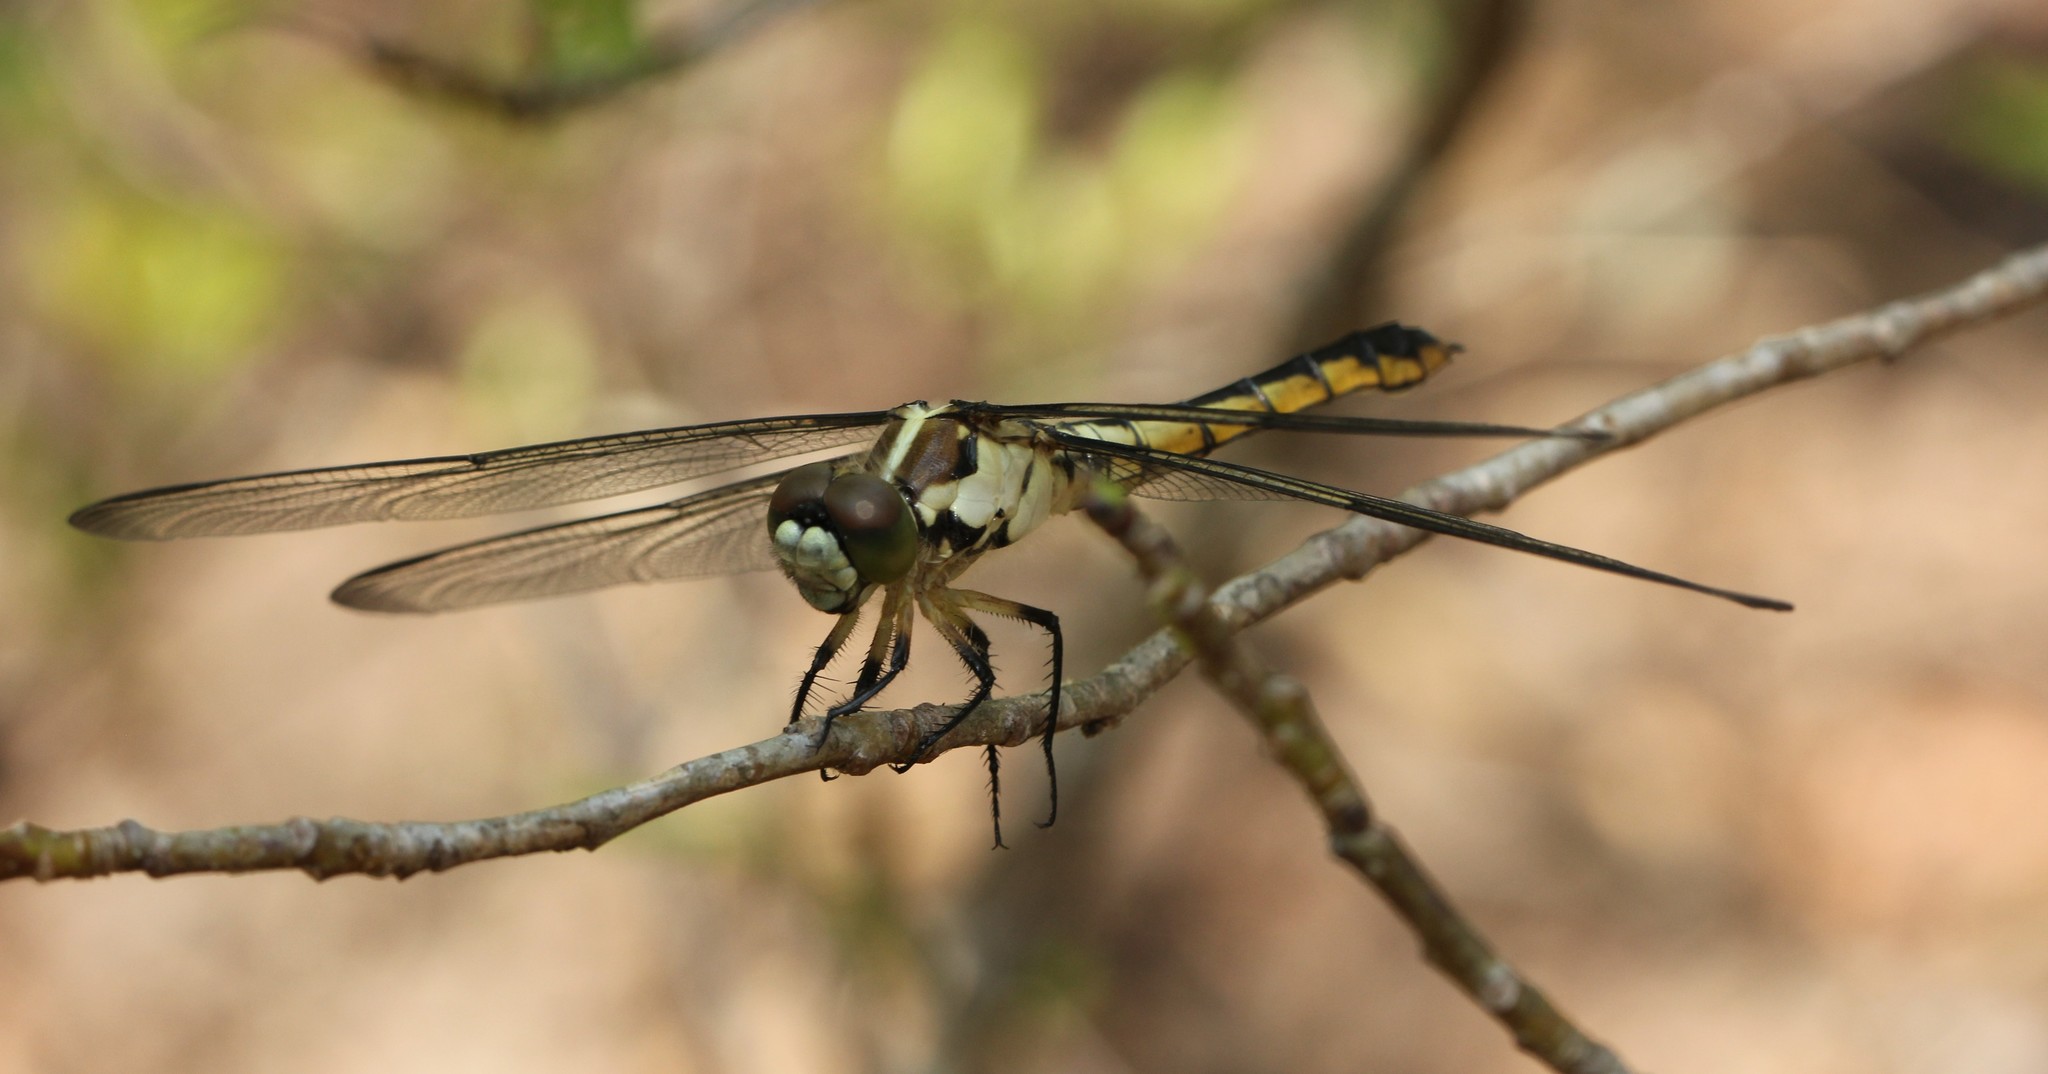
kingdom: Animalia
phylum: Arthropoda
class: Insecta
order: Odonata
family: Libellulidae
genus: Libellula
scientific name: Libellula vibrans
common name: Great blue skimmer
